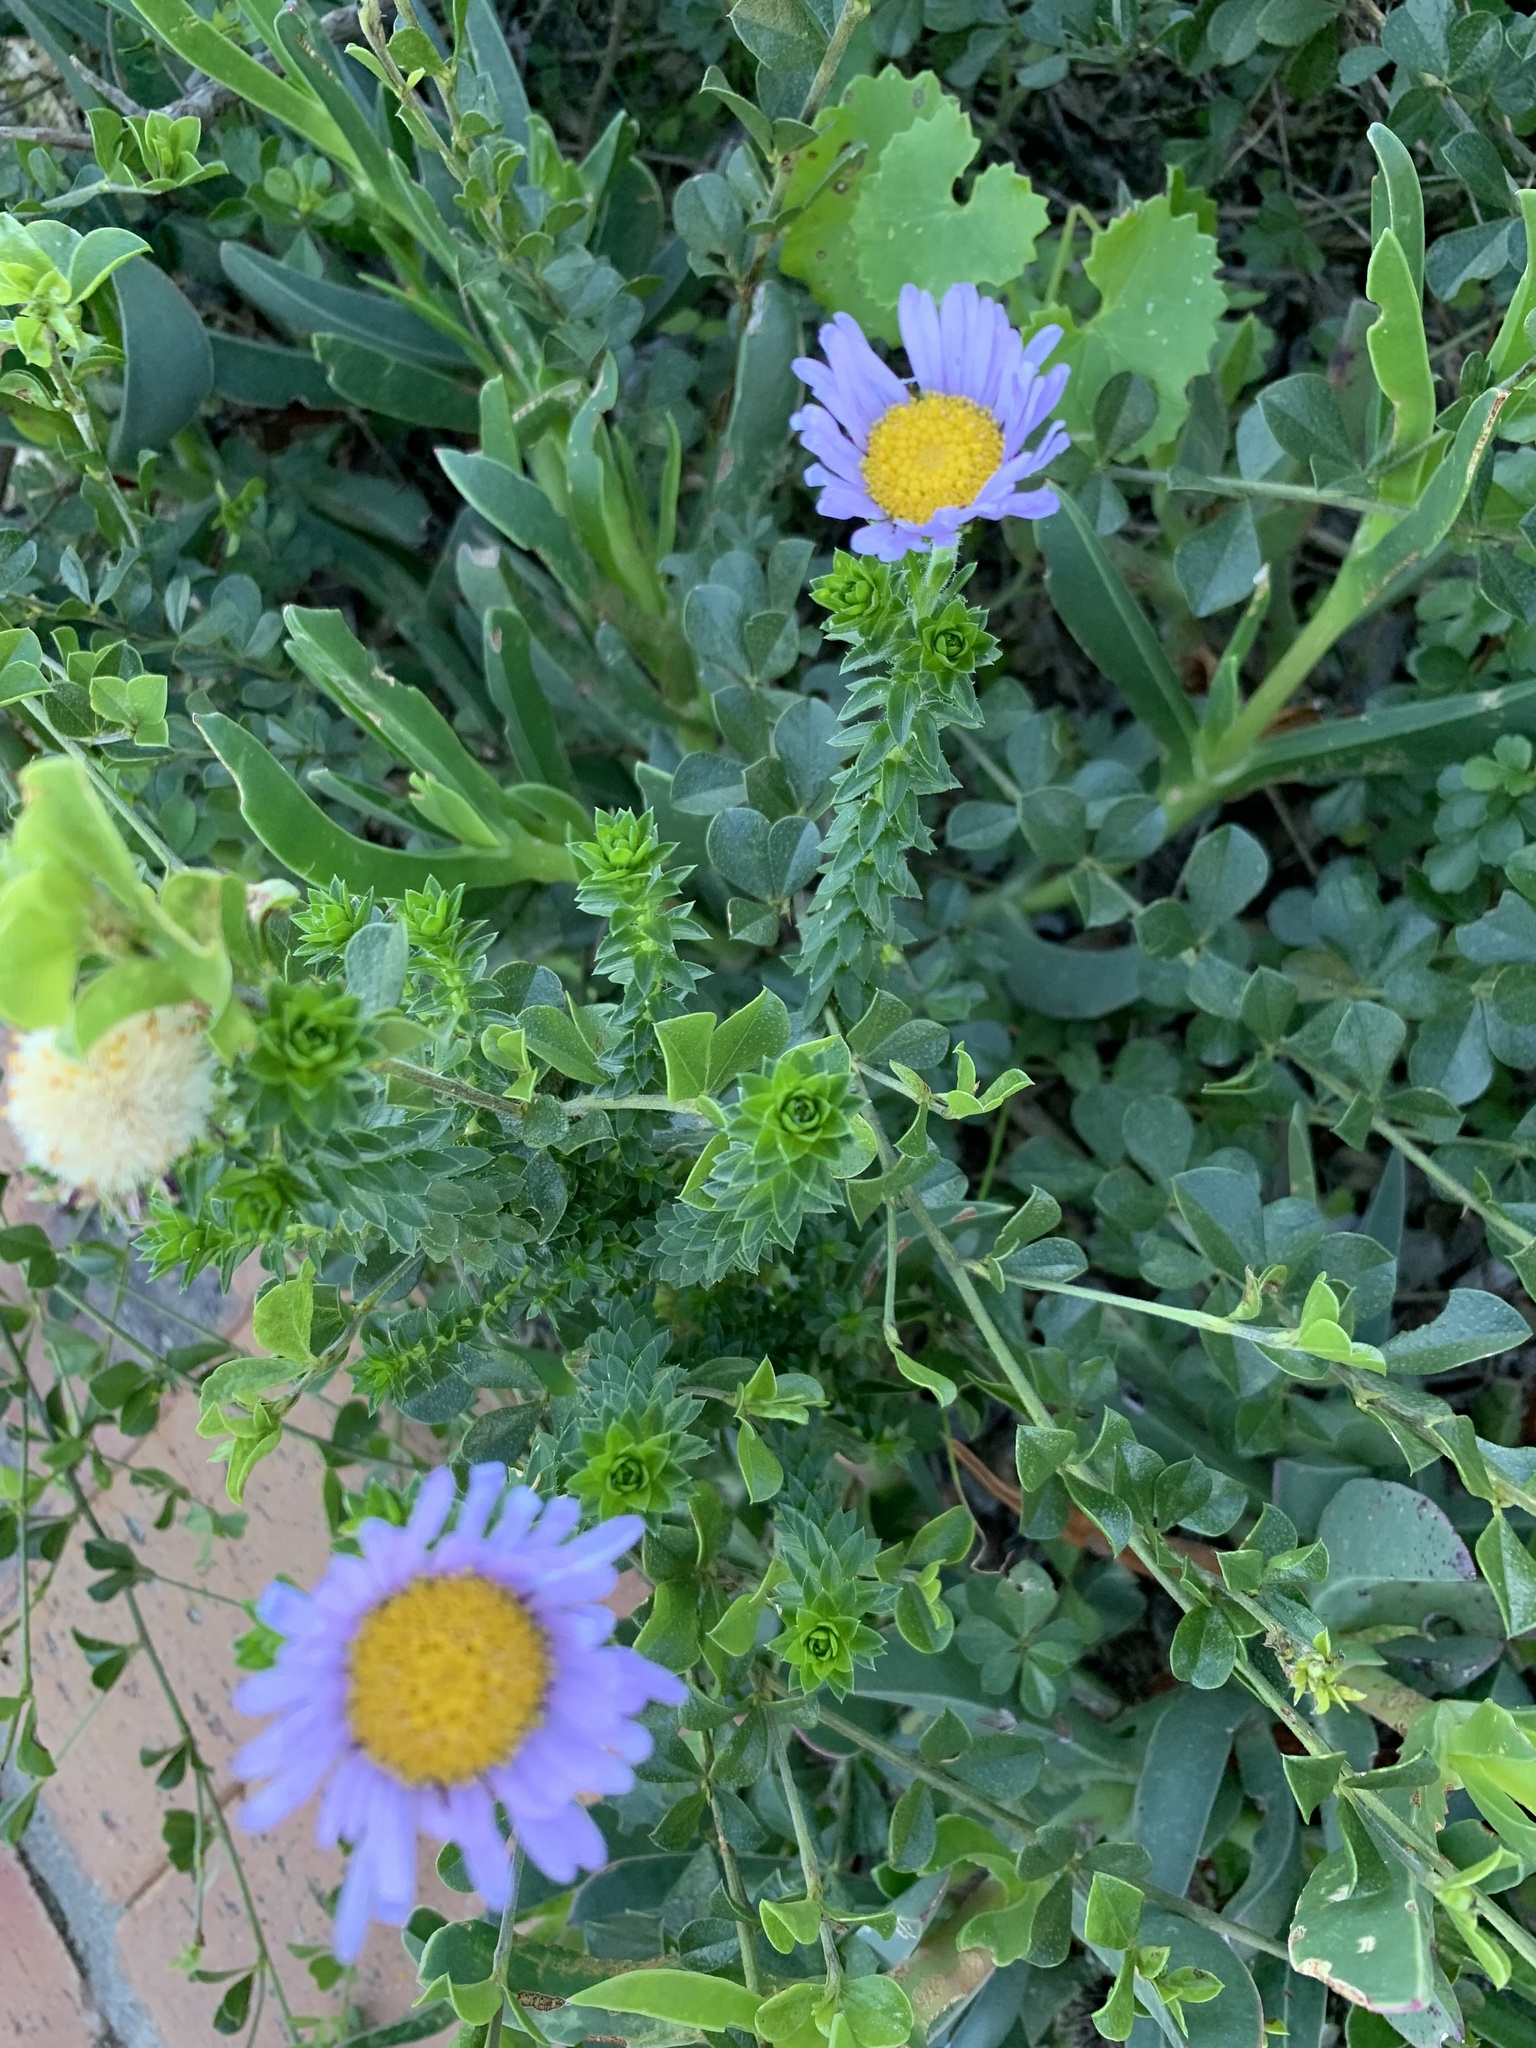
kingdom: Plantae
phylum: Tracheophyta
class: Magnoliopsida
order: Asterales
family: Asteraceae
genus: Felicia
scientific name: Felicia echinata
